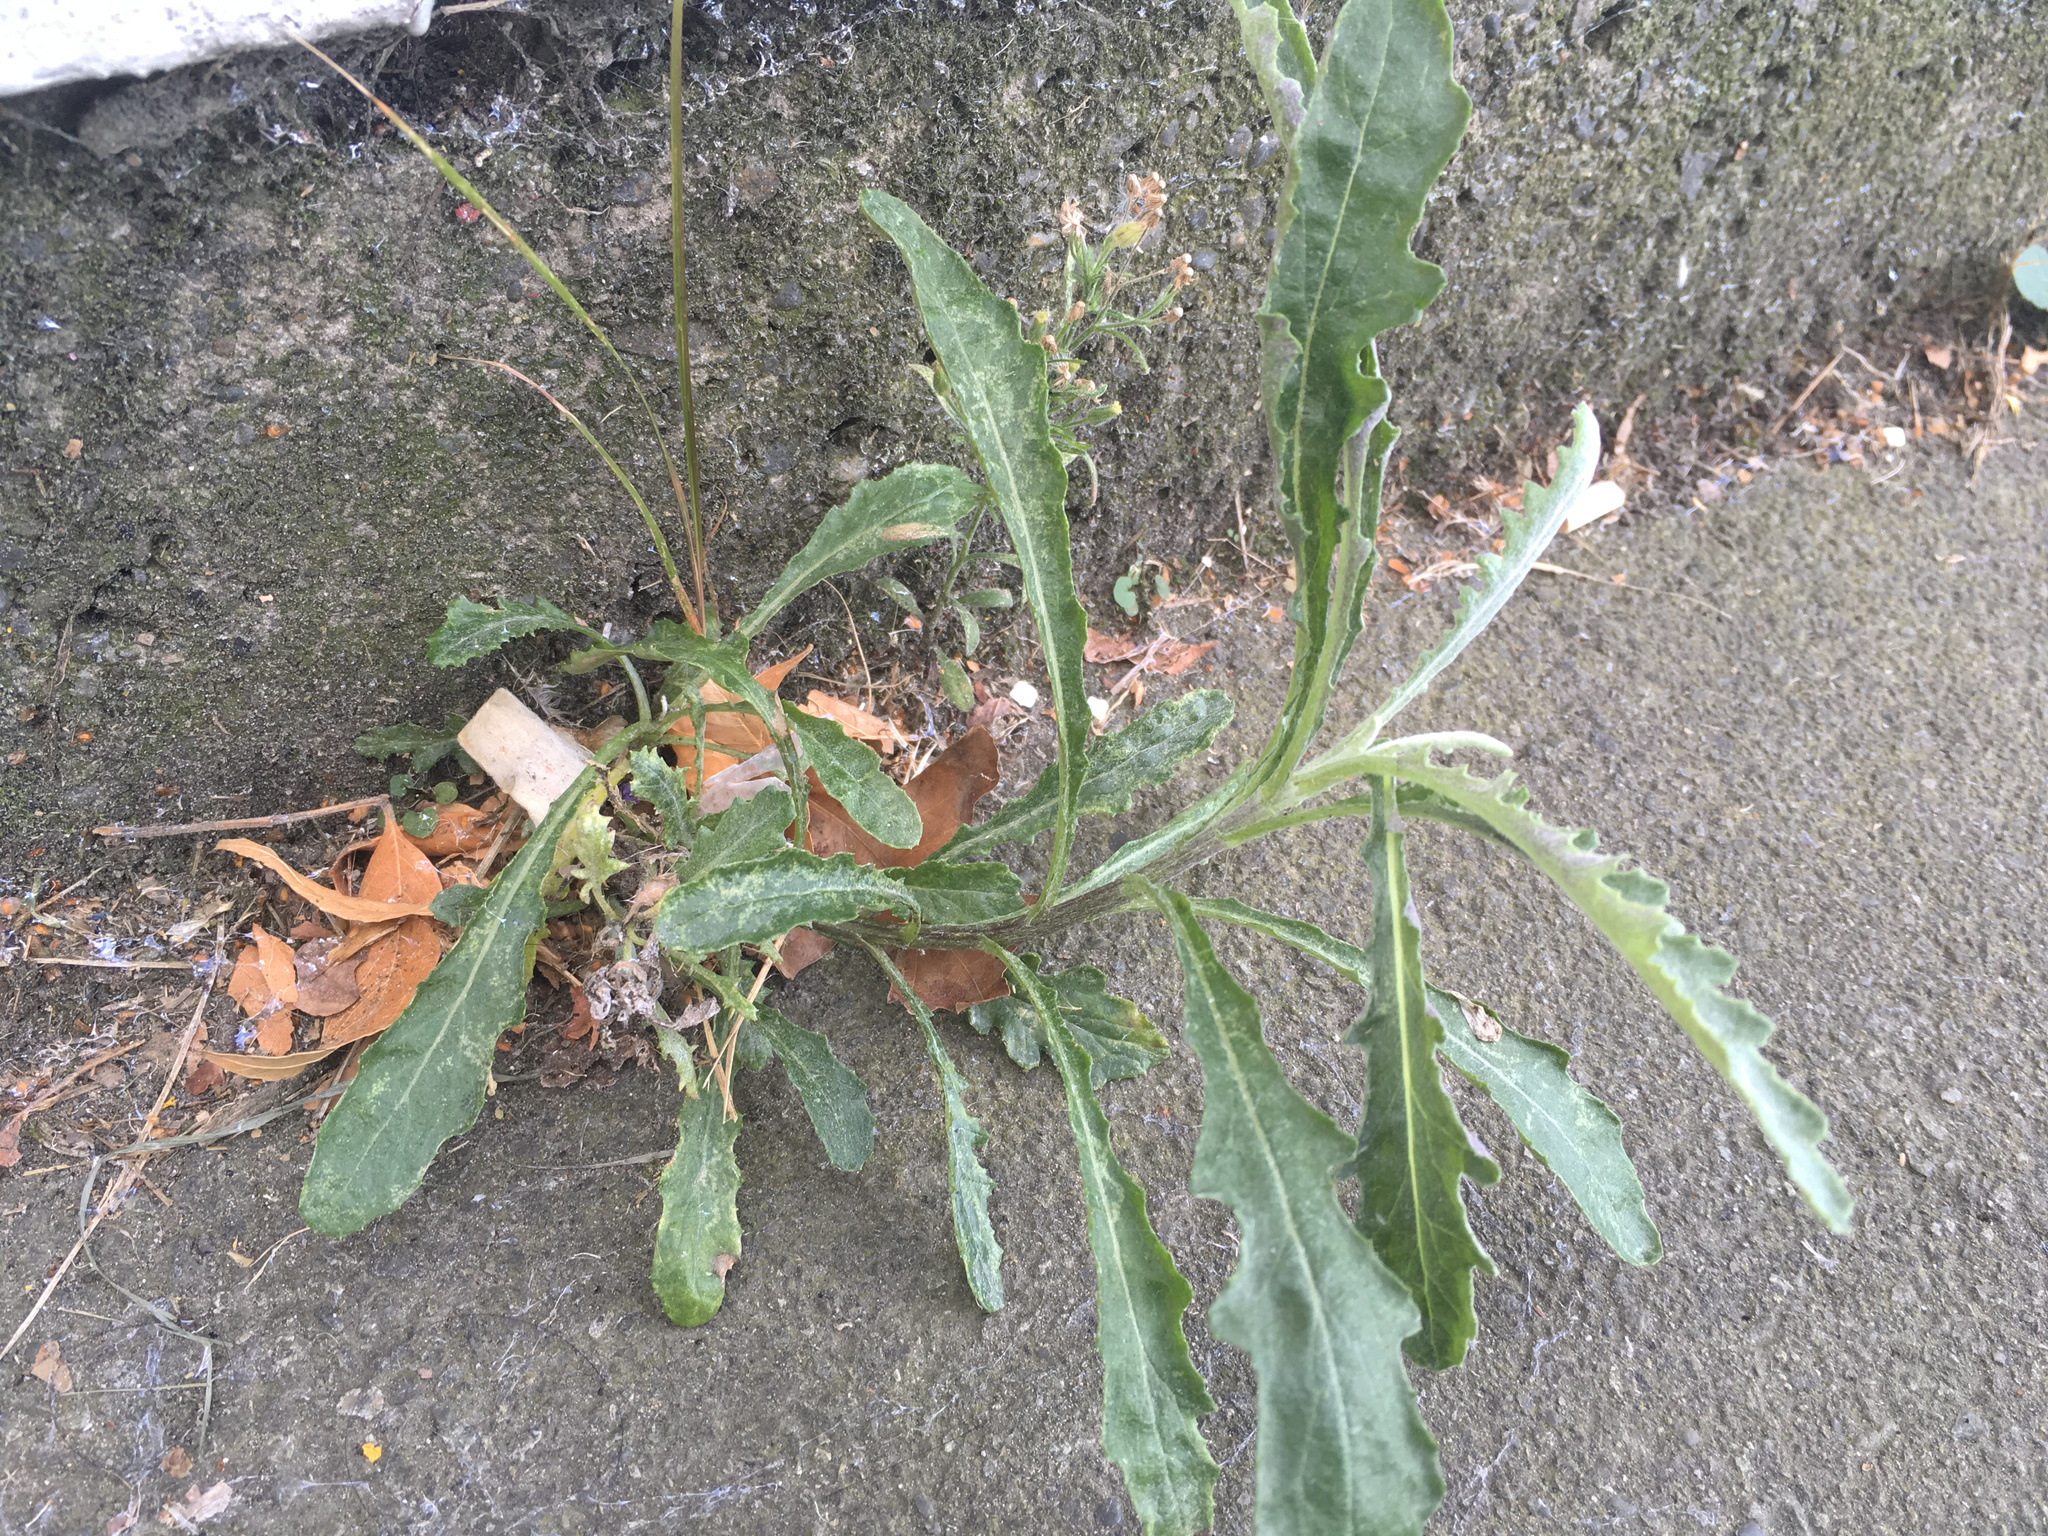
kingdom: Plantae
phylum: Tracheophyta
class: Magnoliopsida
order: Asterales
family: Asteraceae
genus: Senecio
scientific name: Senecio glomeratus
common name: Cutleaf burnweed
